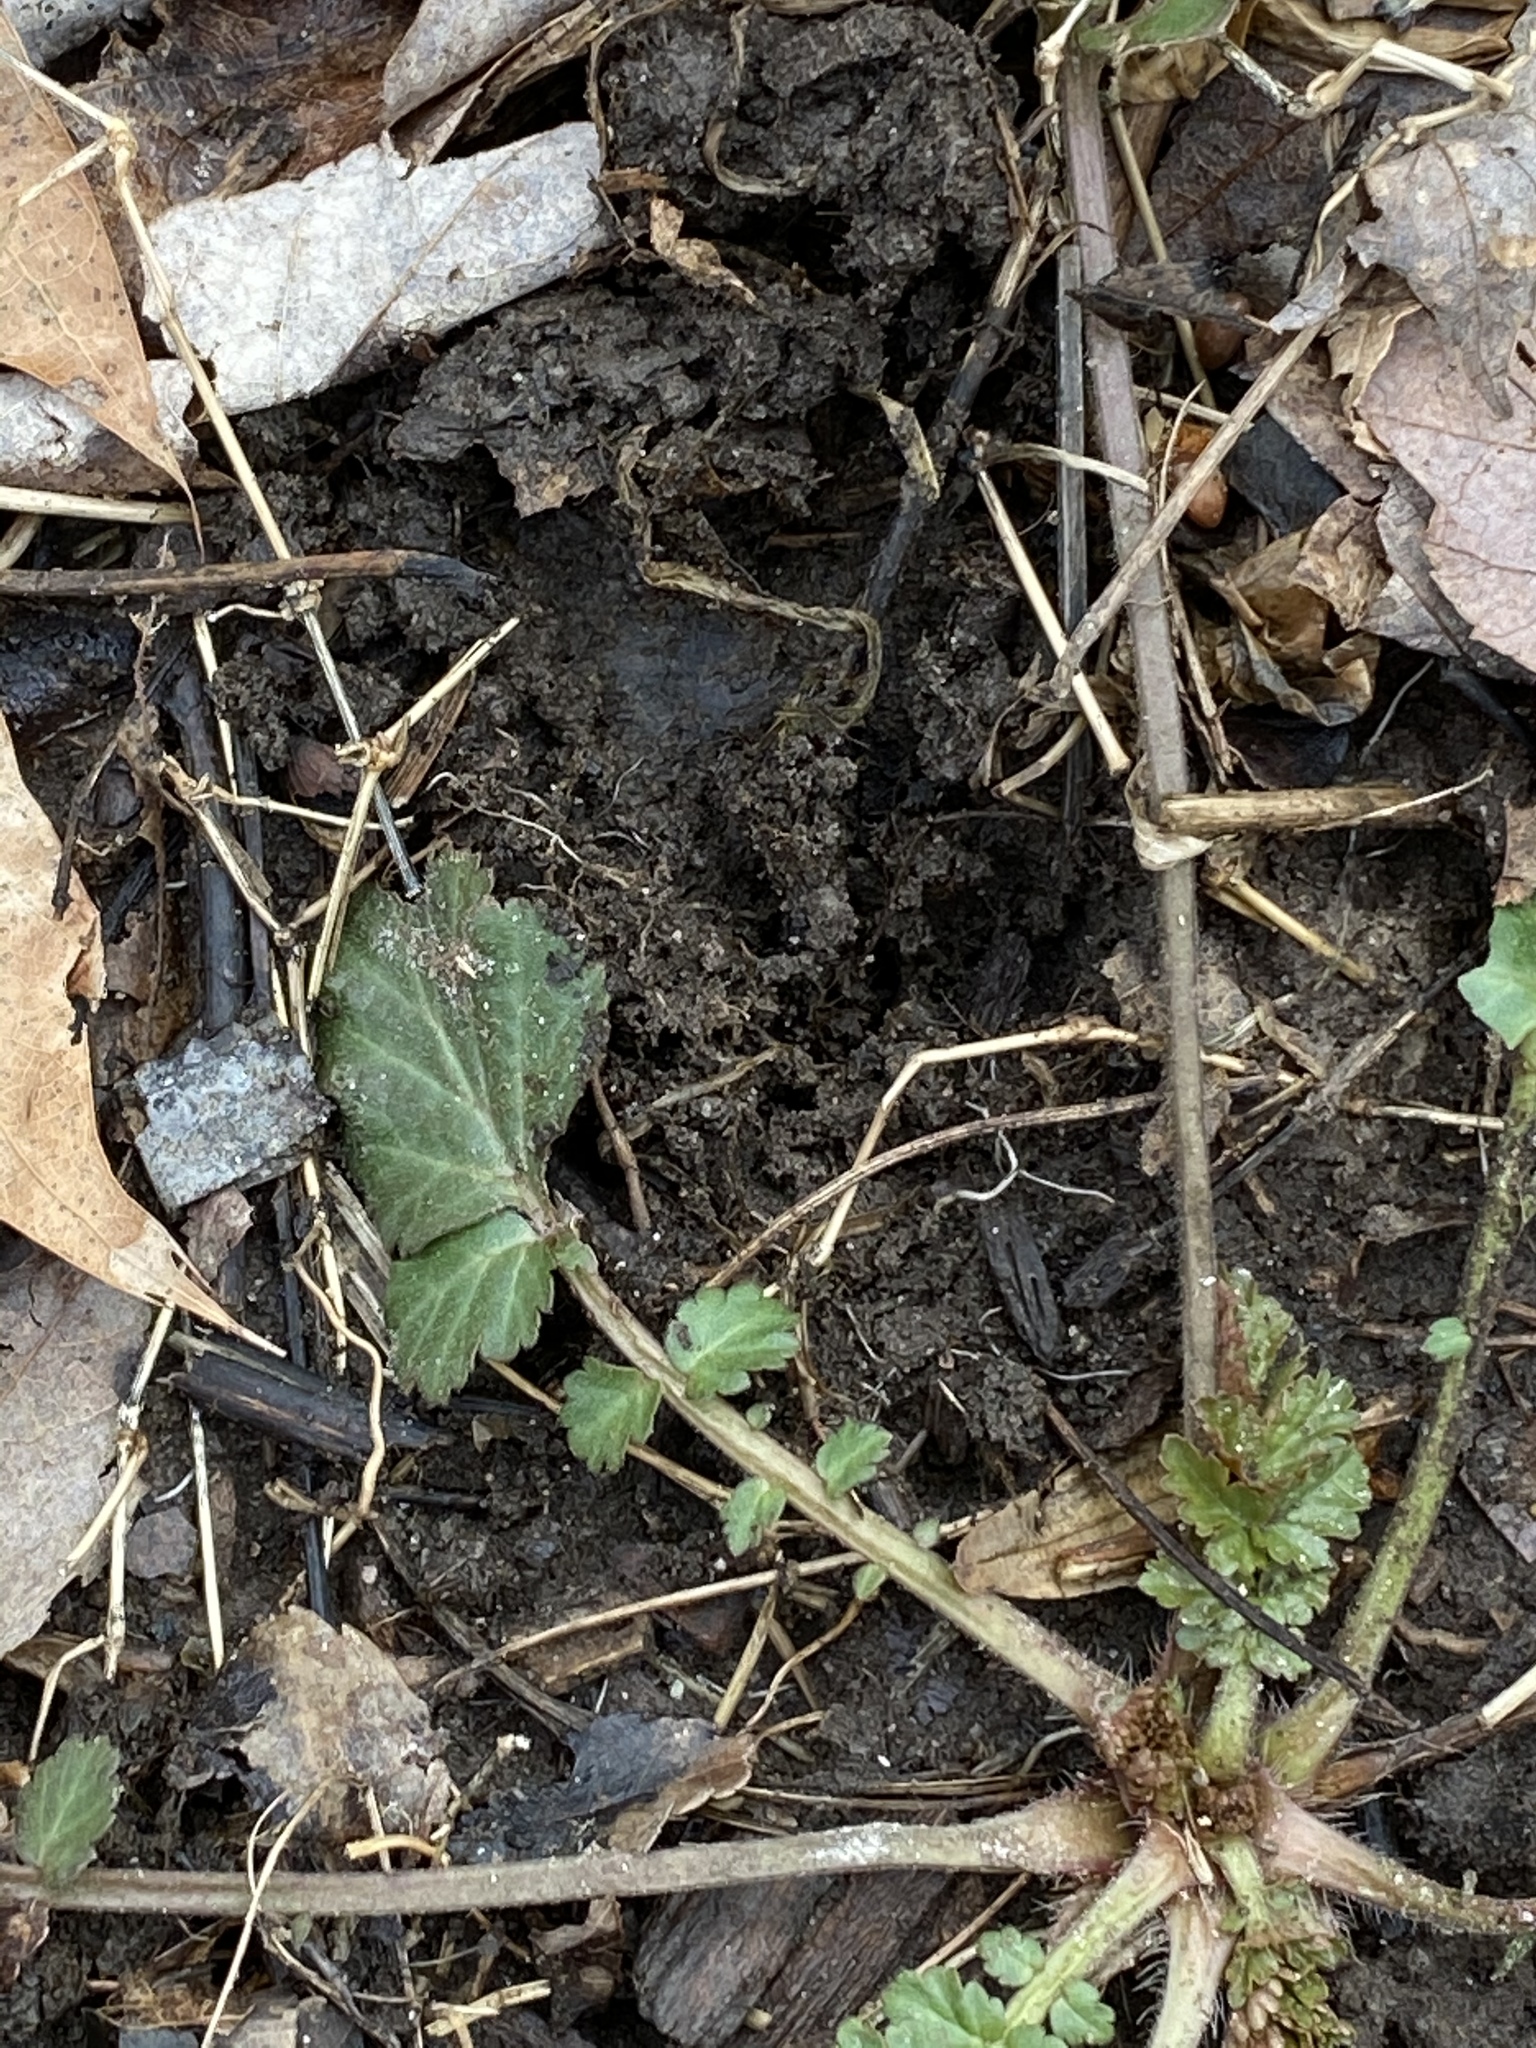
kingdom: Plantae
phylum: Tracheophyta
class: Magnoliopsida
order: Rosales
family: Rosaceae
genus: Geum
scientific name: Geum canadense
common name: White avens
